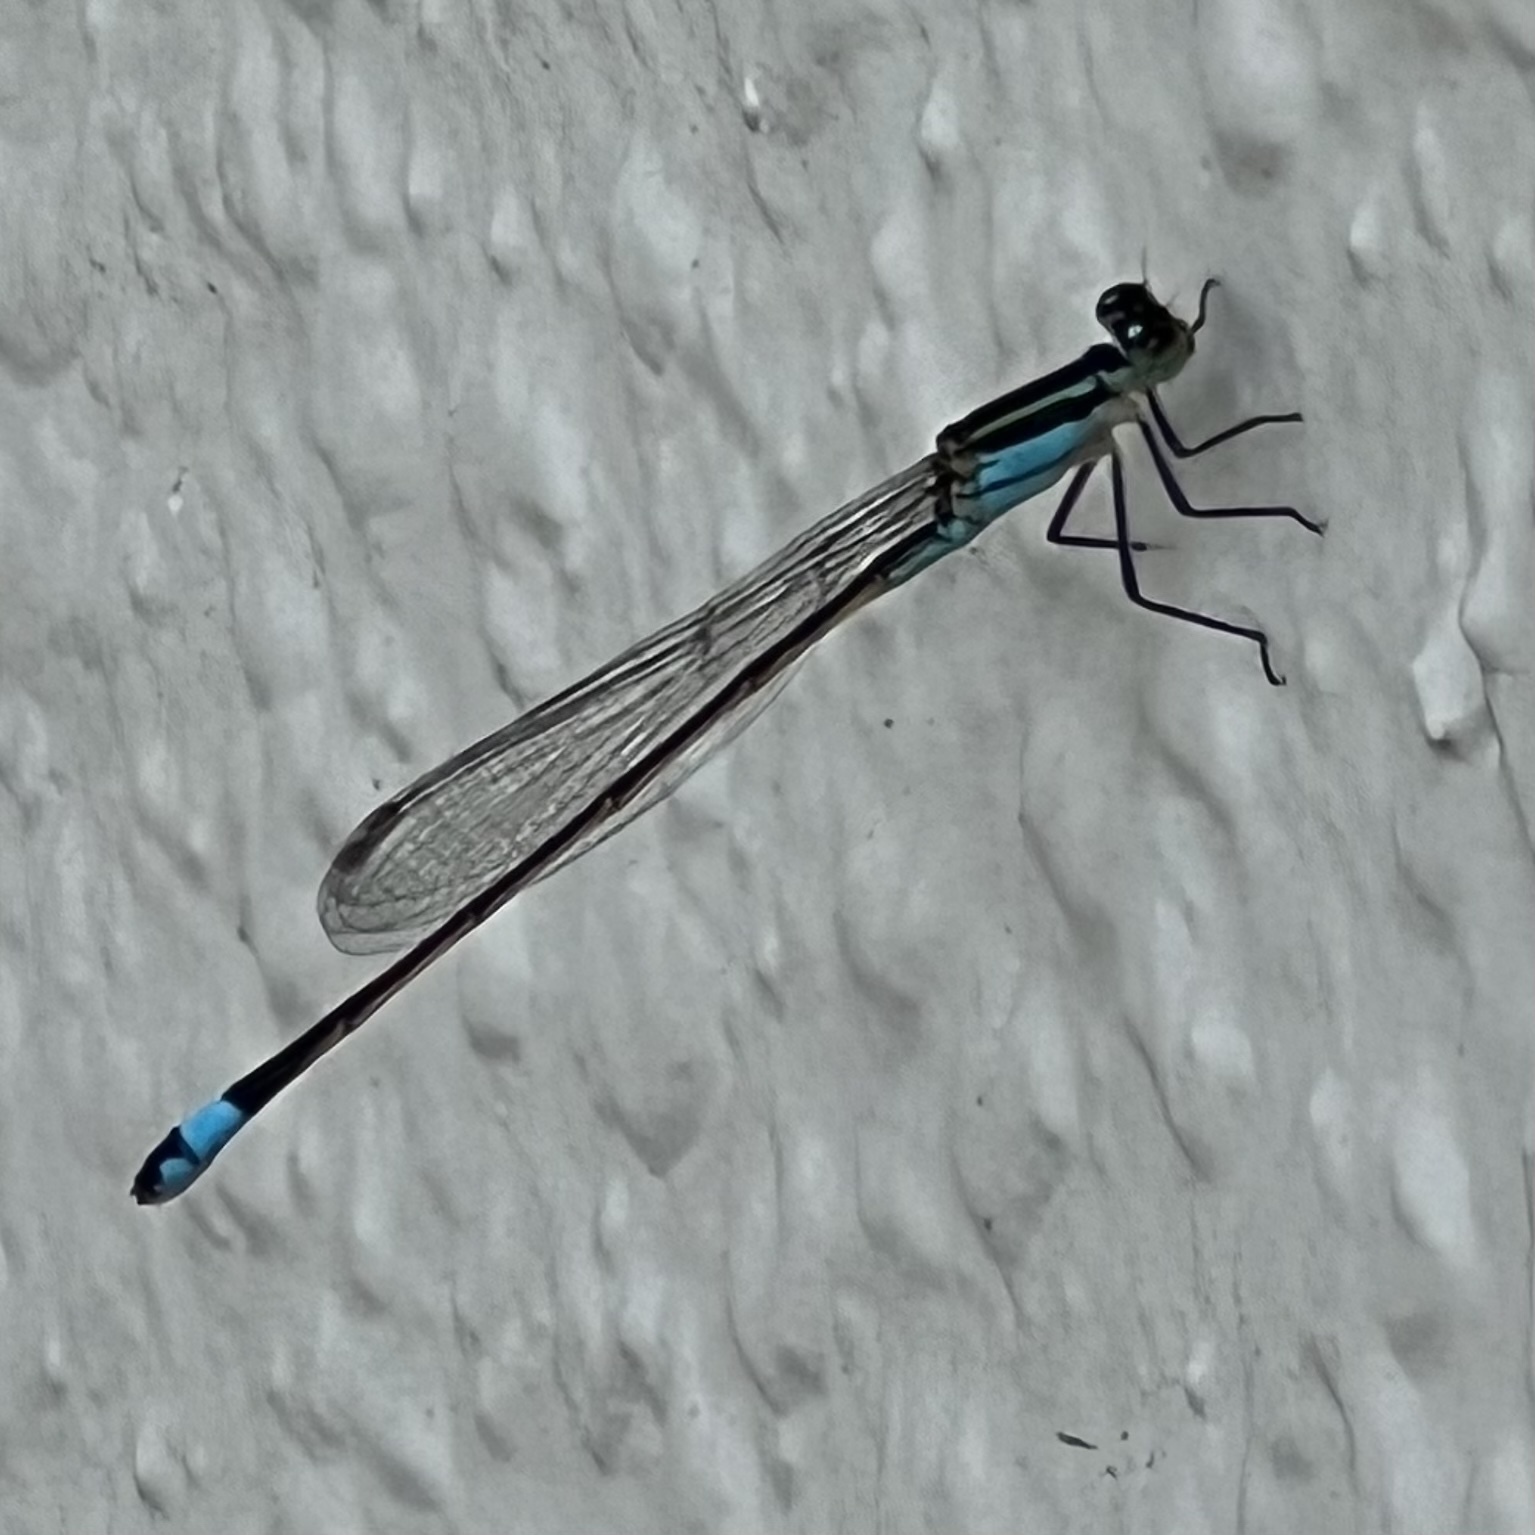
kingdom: Animalia
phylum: Arthropoda
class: Insecta
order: Odonata
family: Coenagrionidae
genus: Ischnura
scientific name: Ischnura ramburii
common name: Rambur's forktail
